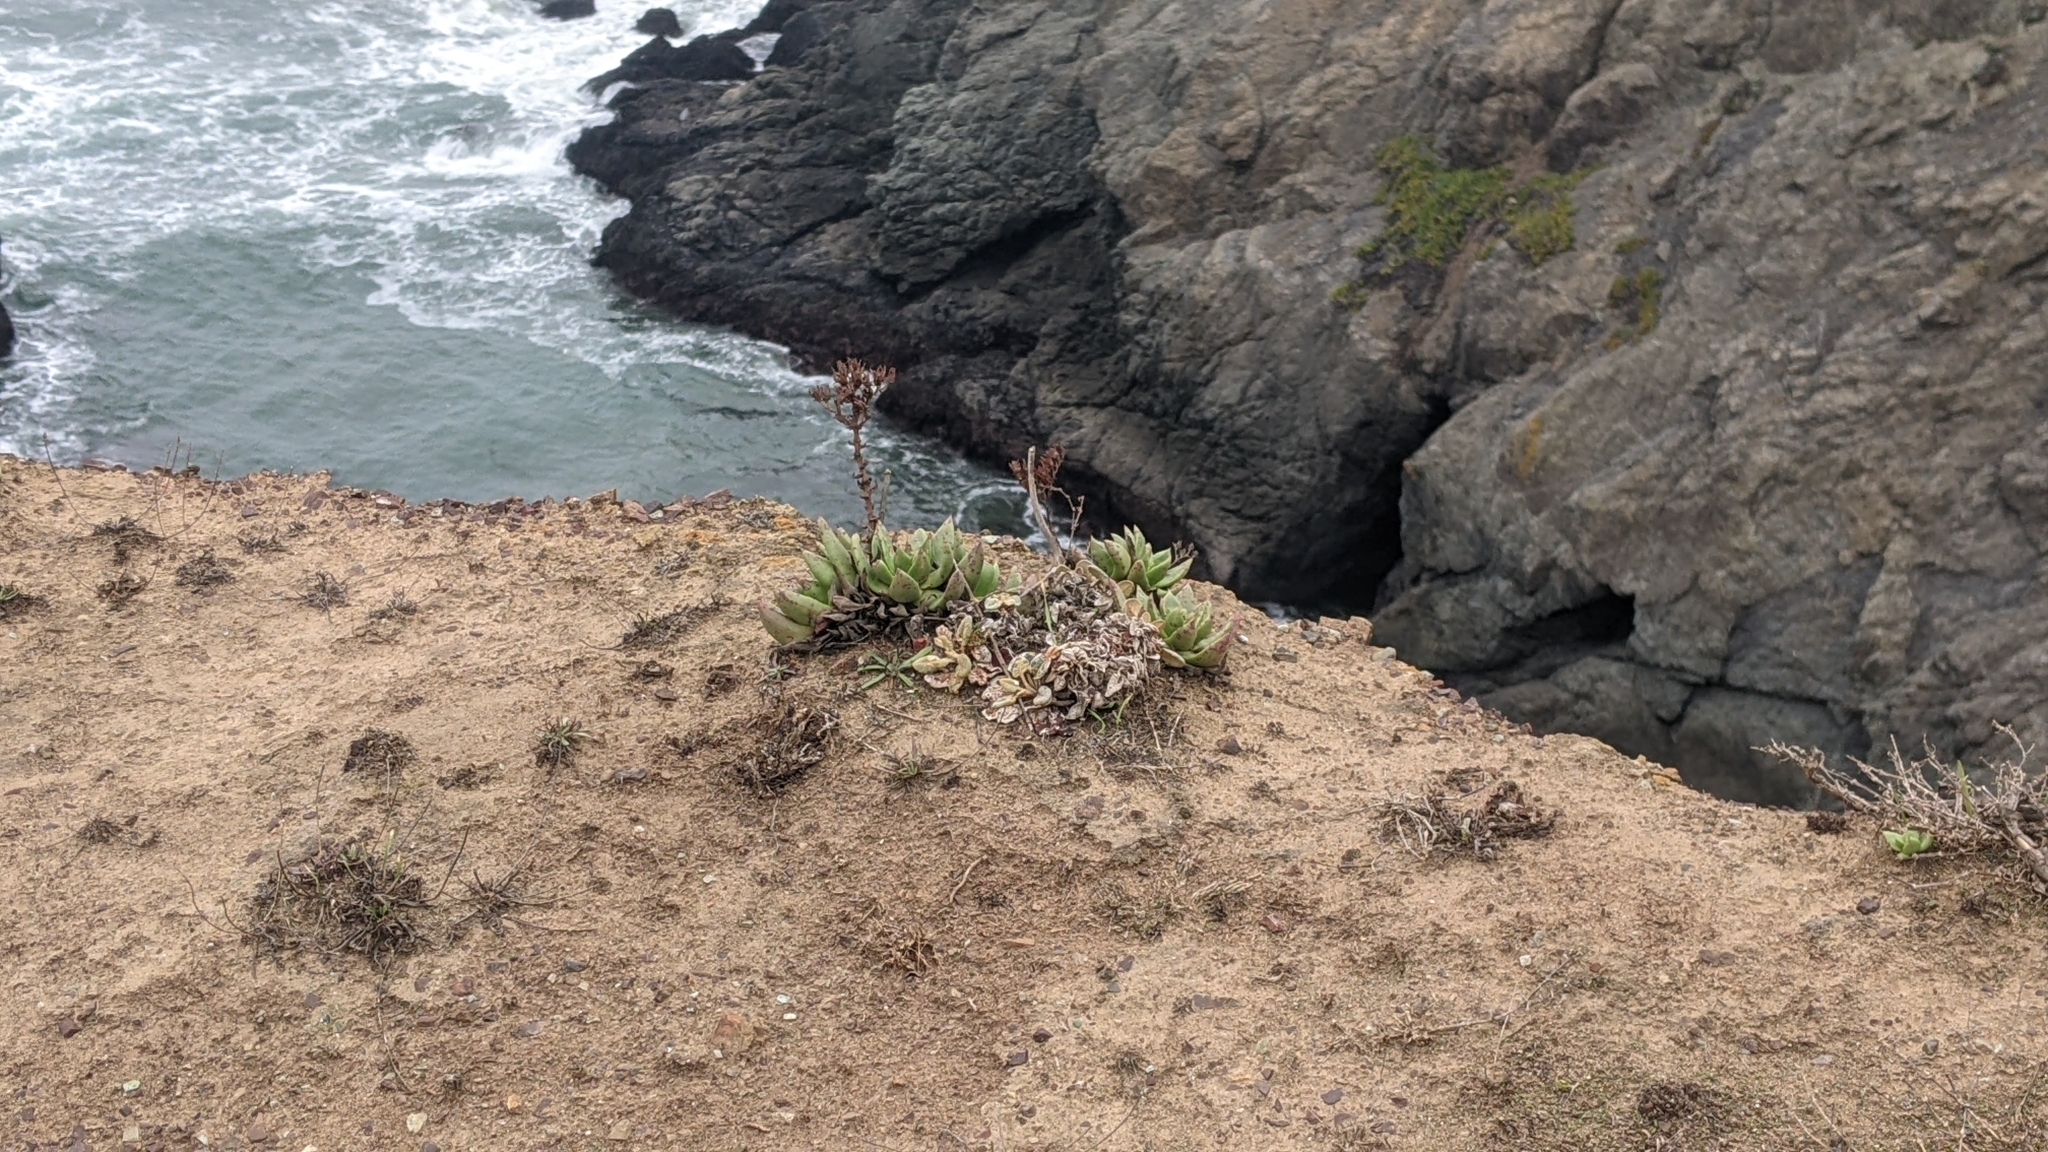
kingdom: Plantae
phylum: Tracheophyta
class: Magnoliopsida
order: Saxifragales
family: Crassulaceae
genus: Dudleya
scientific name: Dudleya farinosa
